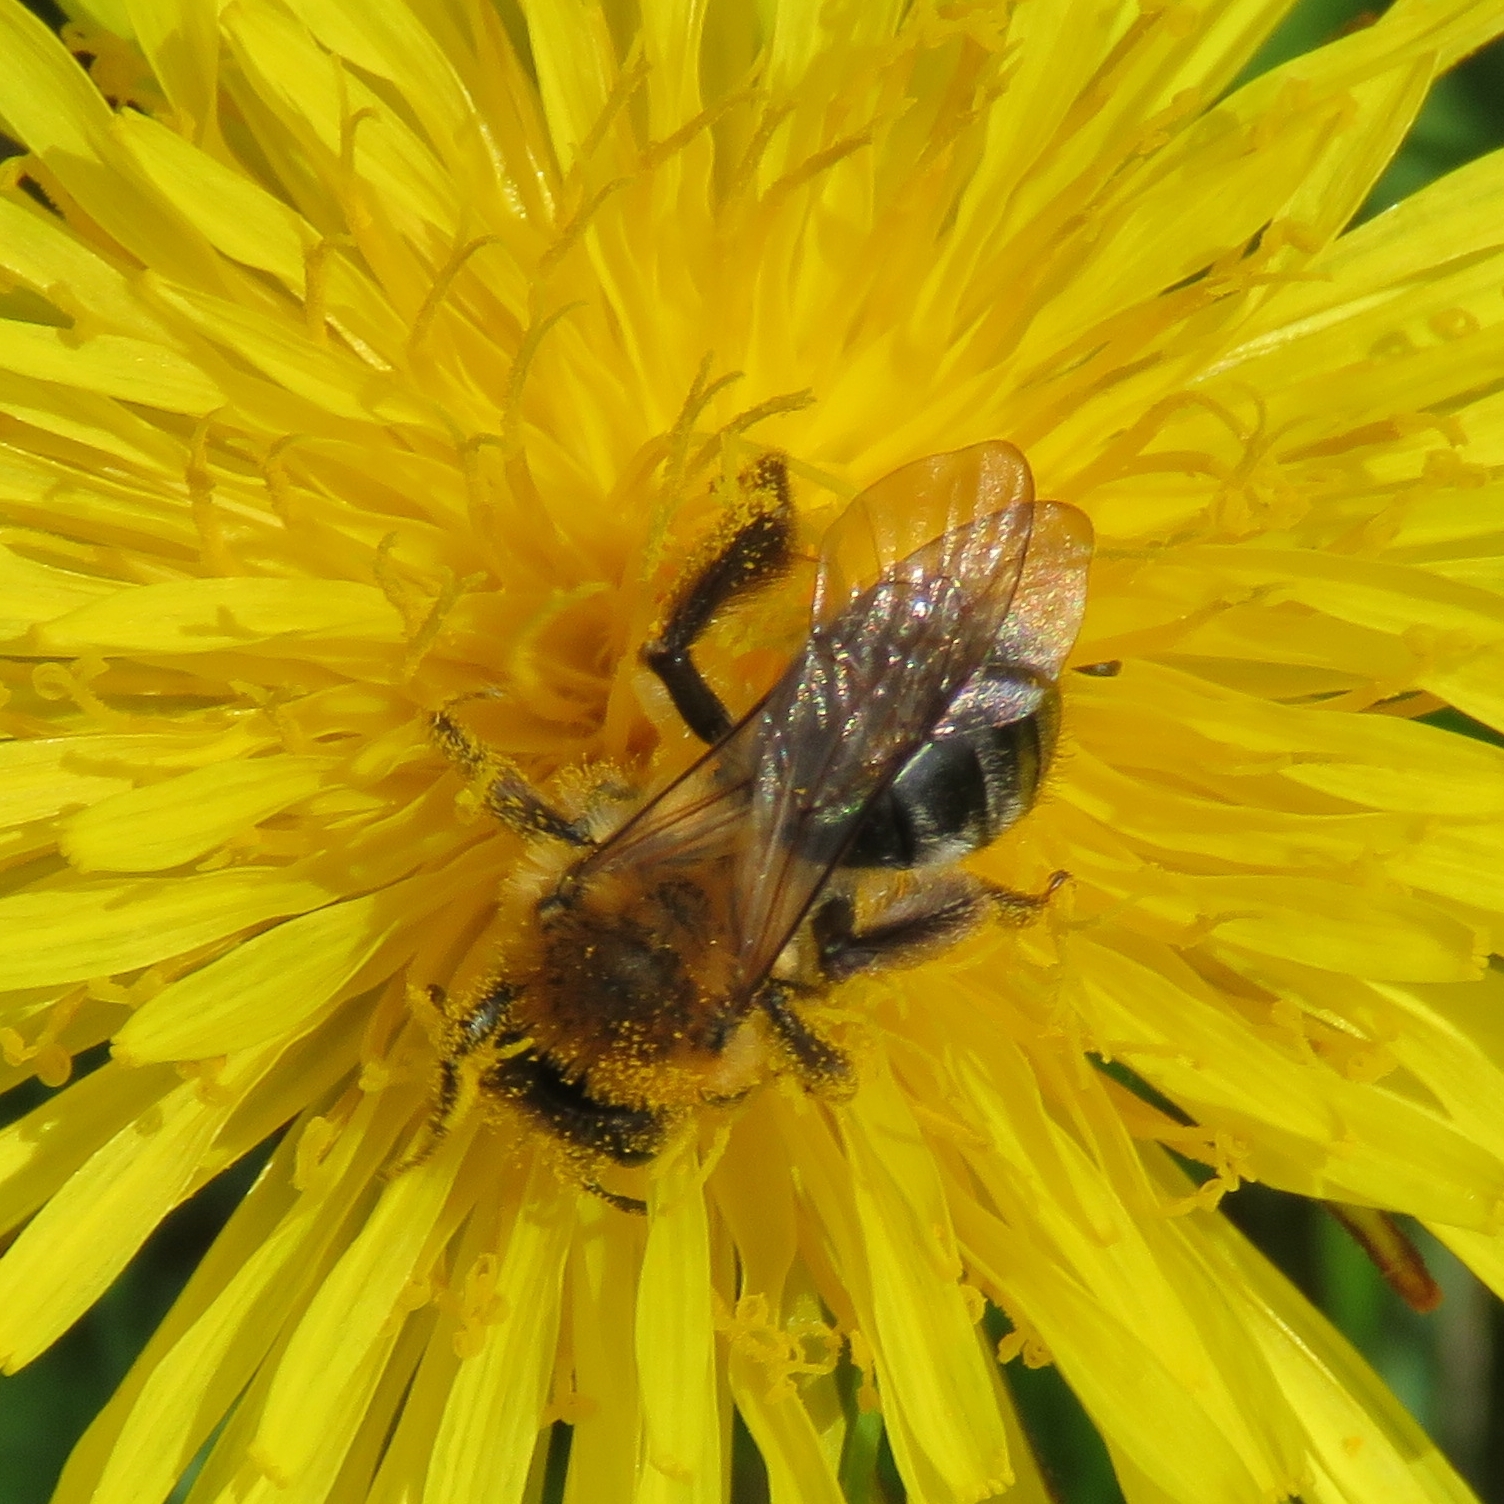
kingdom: Animalia
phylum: Arthropoda
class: Insecta
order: Hymenoptera
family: Andrenidae
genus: Andrena
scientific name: Andrena nitida
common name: Grey-patched mining bee
